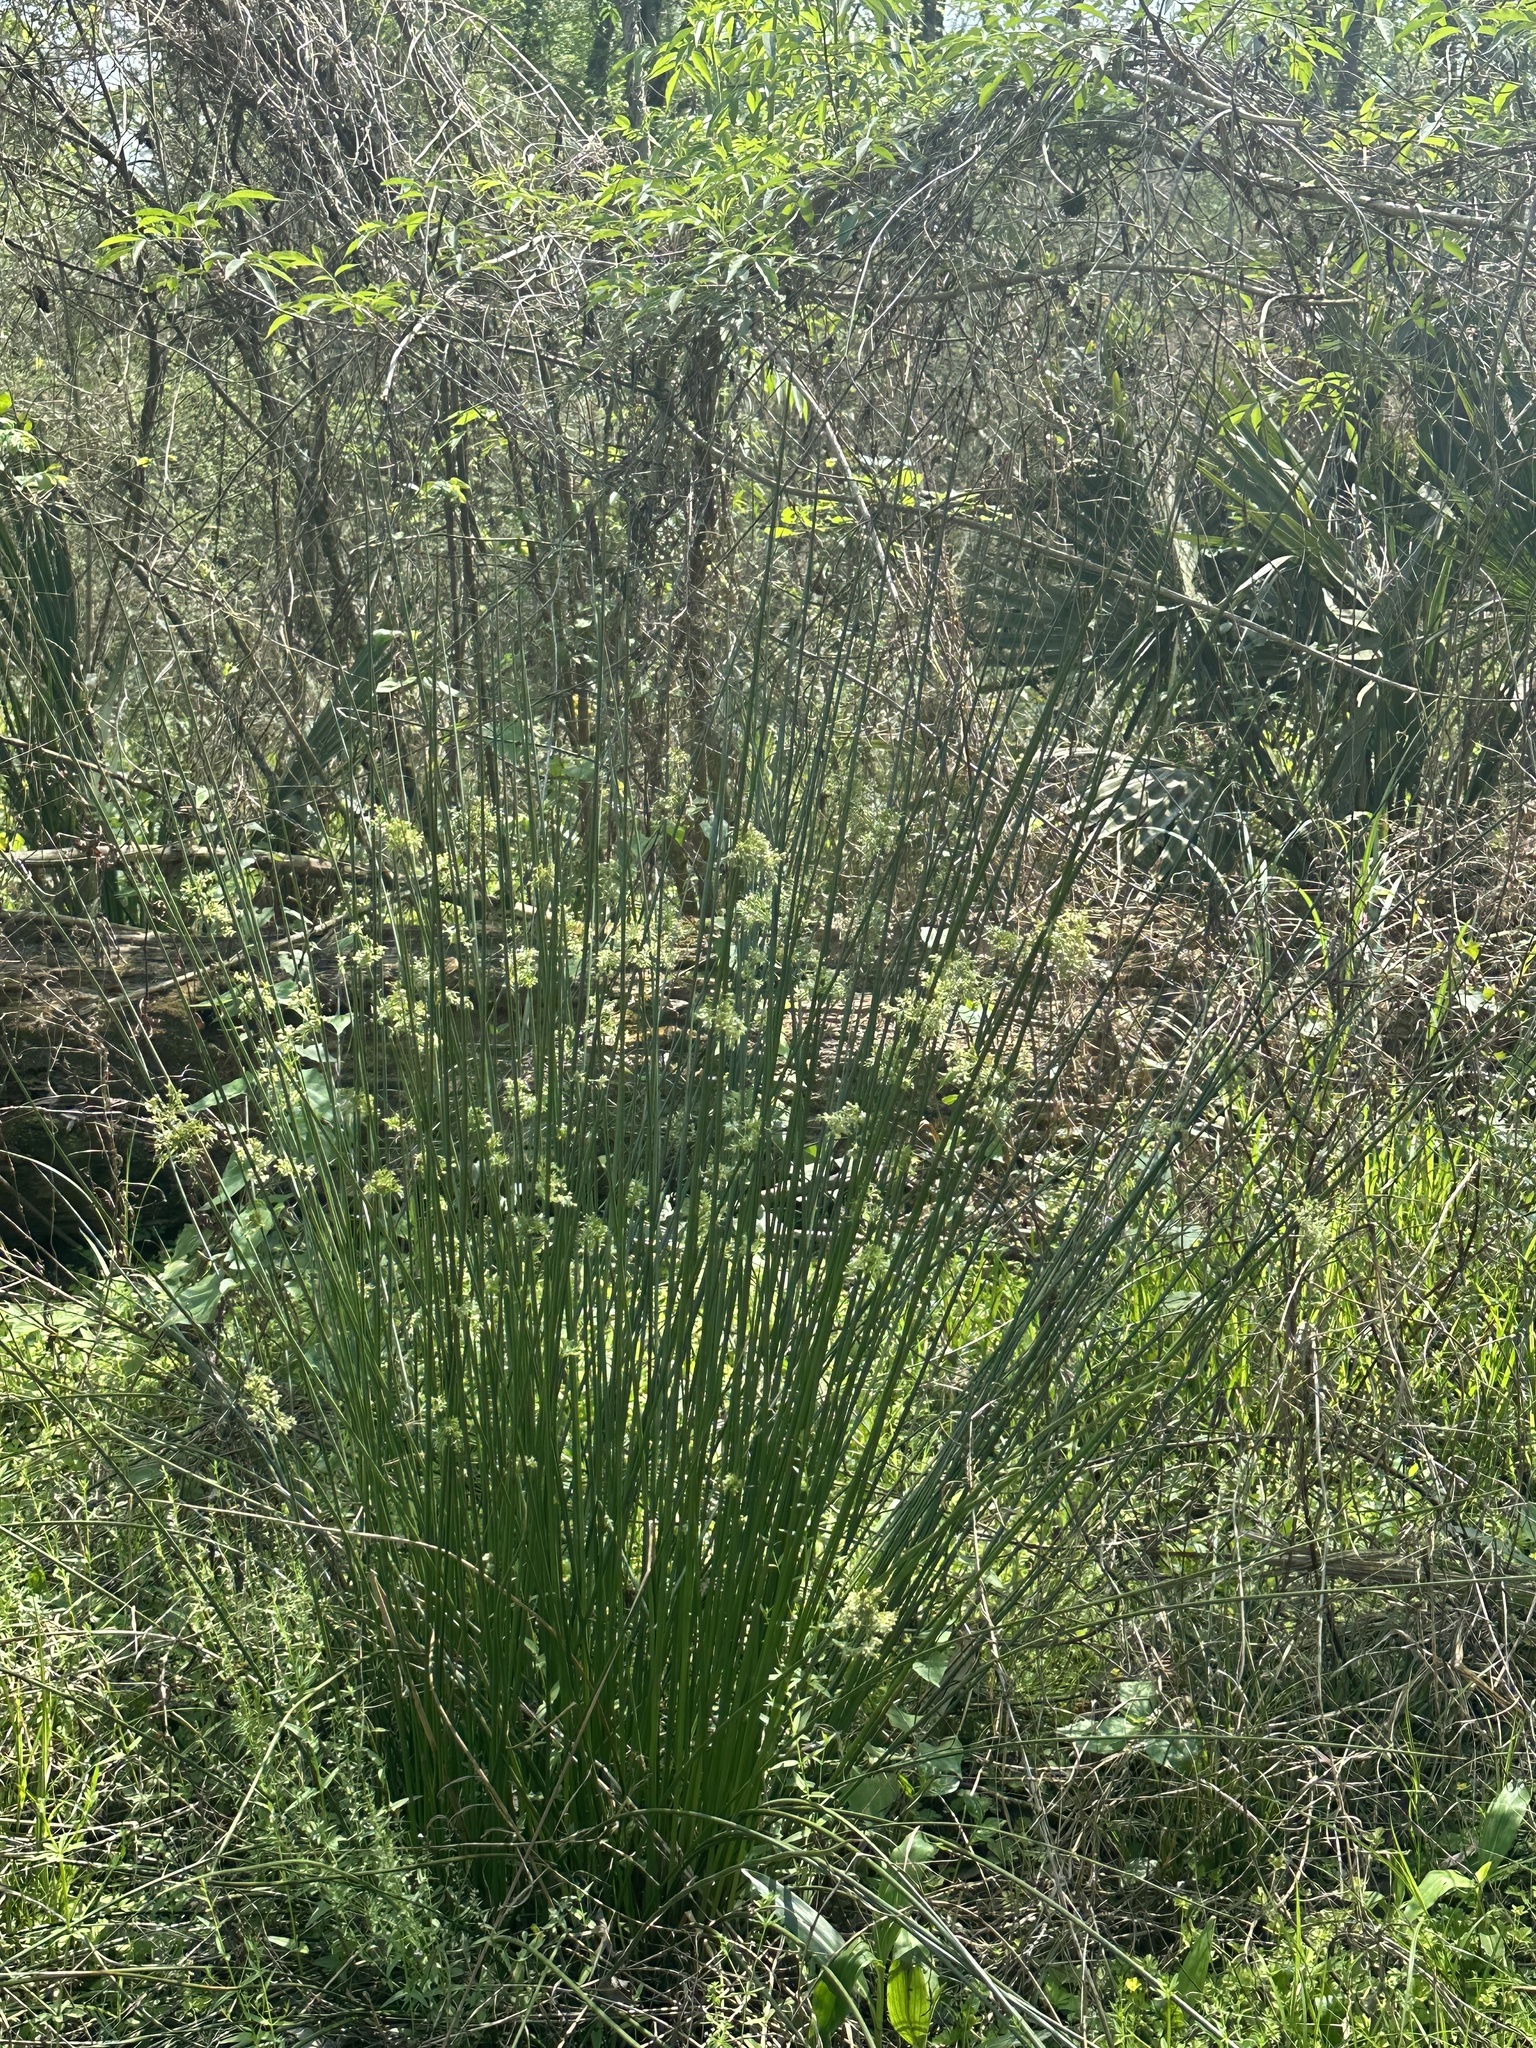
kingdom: Plantae
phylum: Tracheophyta
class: Liliopsida
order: Poales
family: Juncaceae
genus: Juncus
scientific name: Juncus effusus
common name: Soft rush
